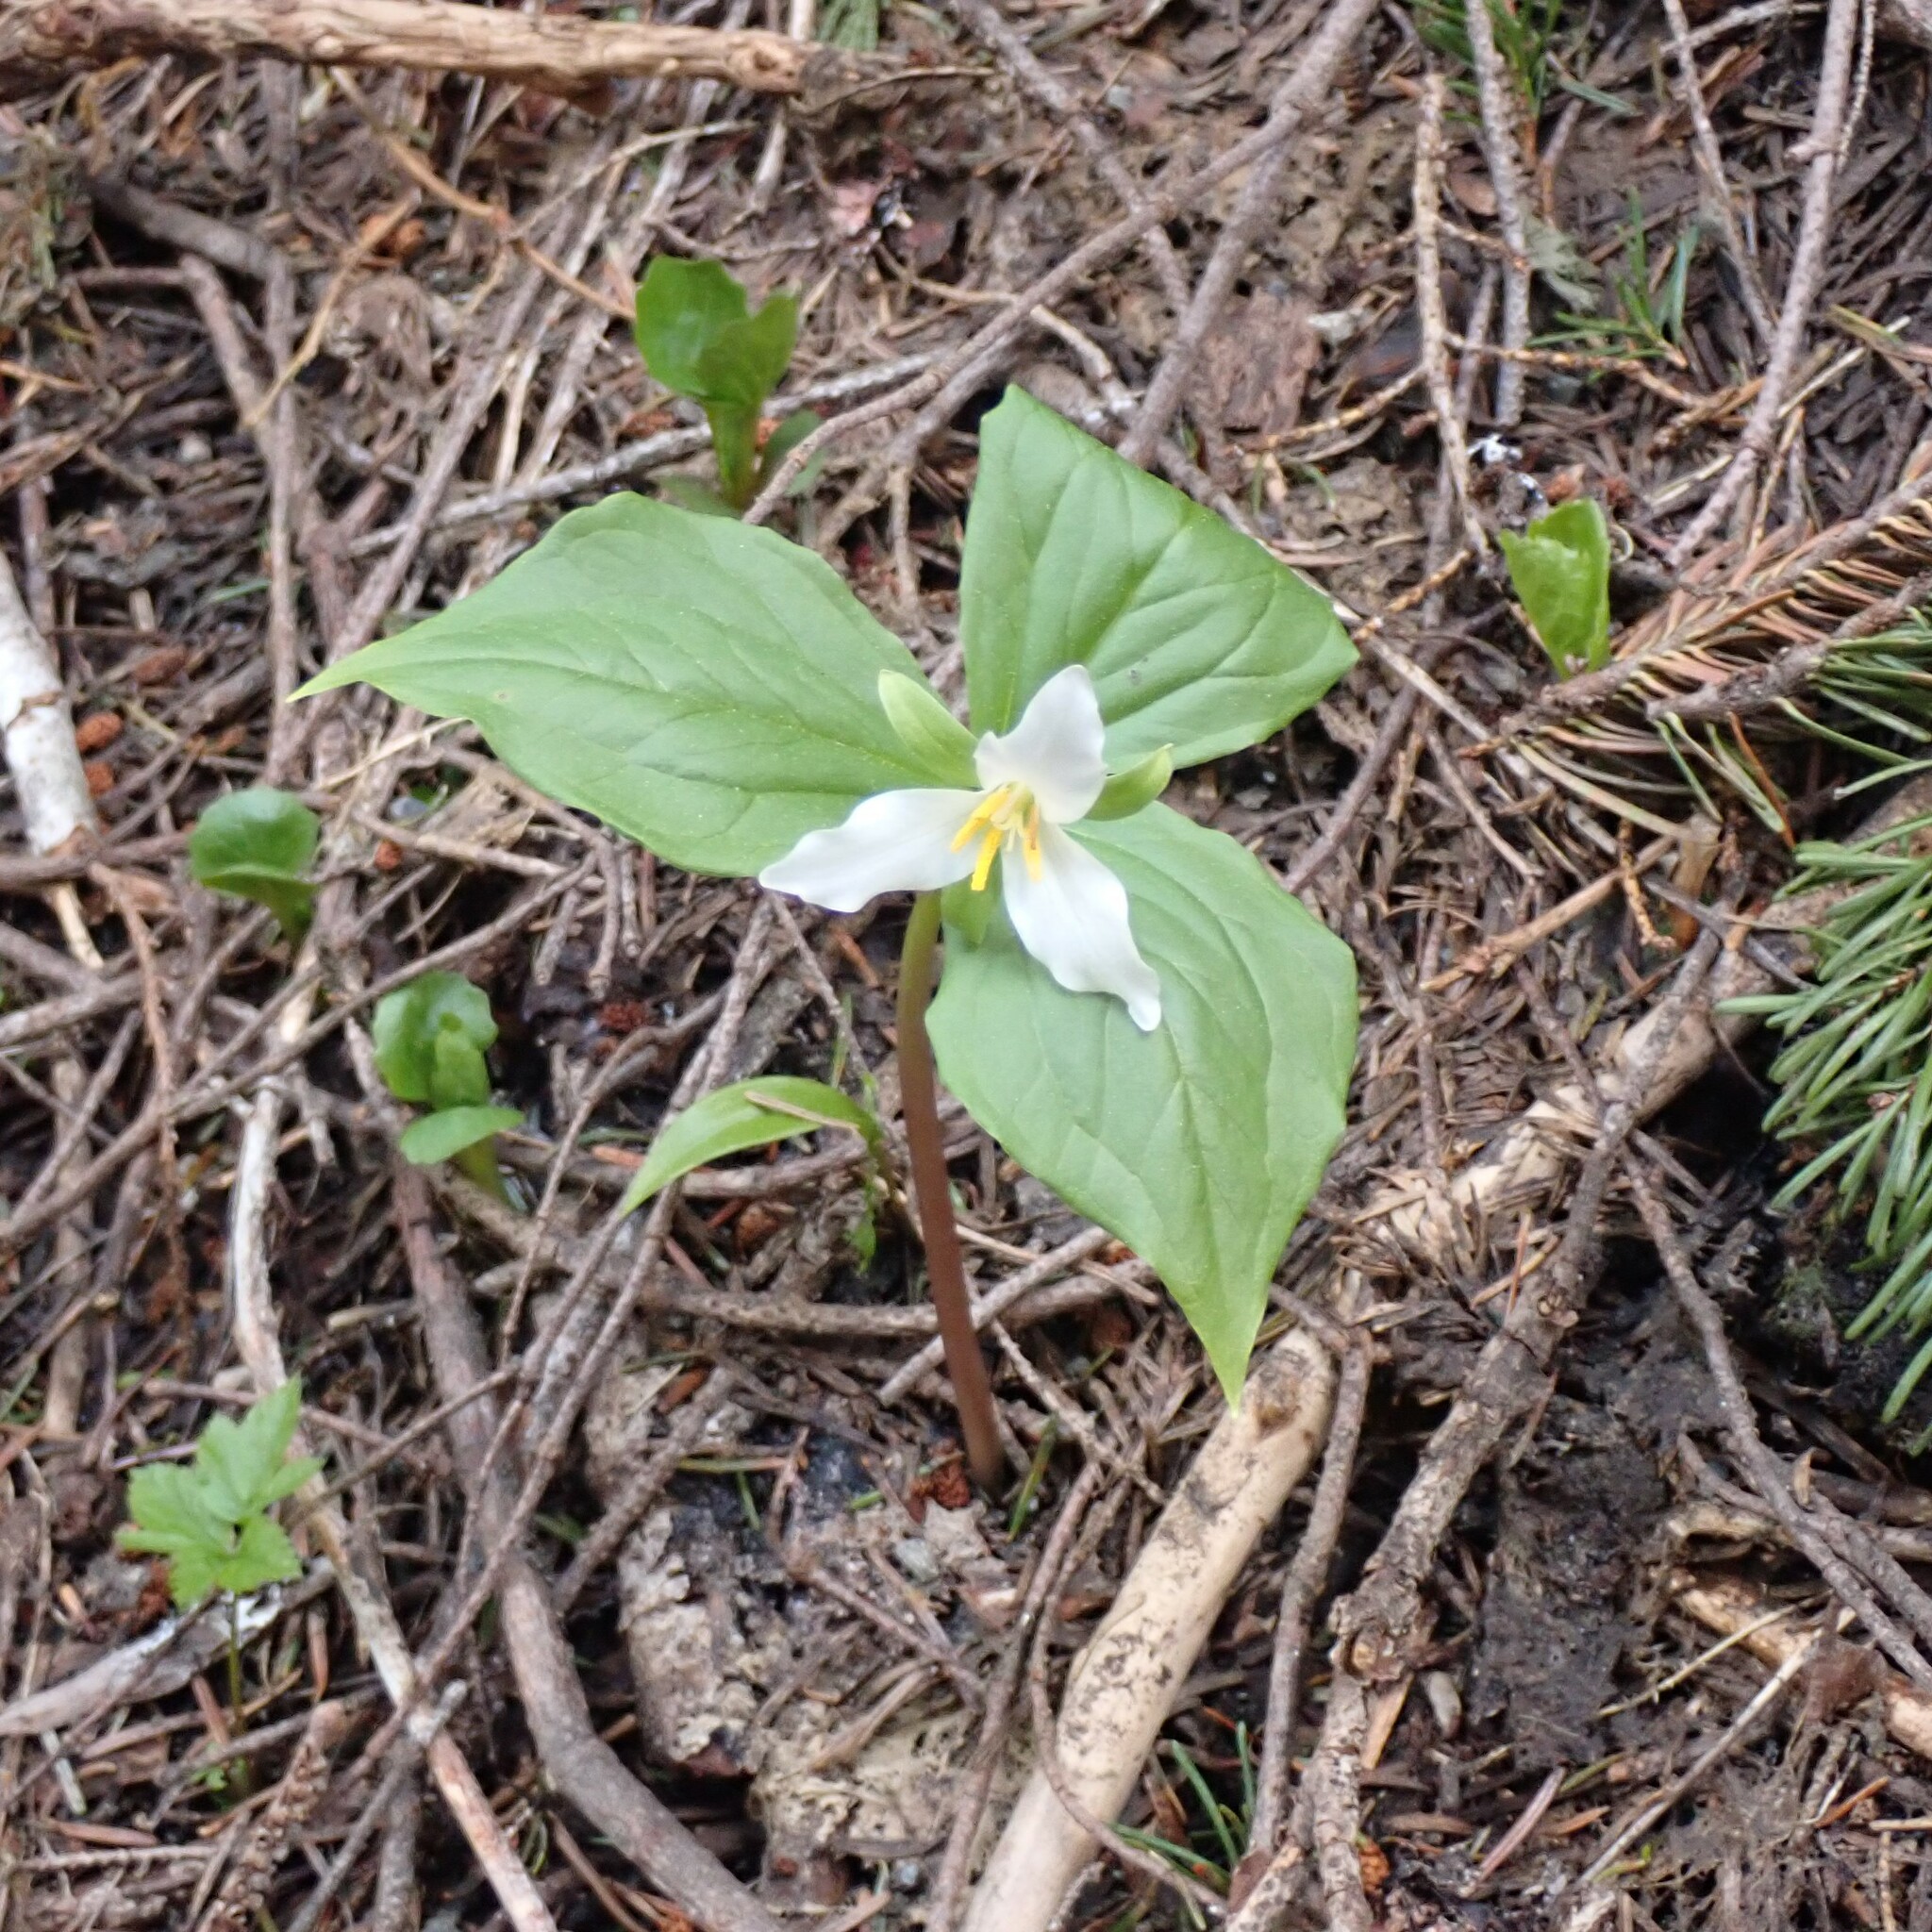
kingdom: Plantae
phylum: Tracheophyta
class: Liliopsida
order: Liliales
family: Melanthiaceae
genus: Trillium
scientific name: Trillium ovatum
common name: Pacific trillium
